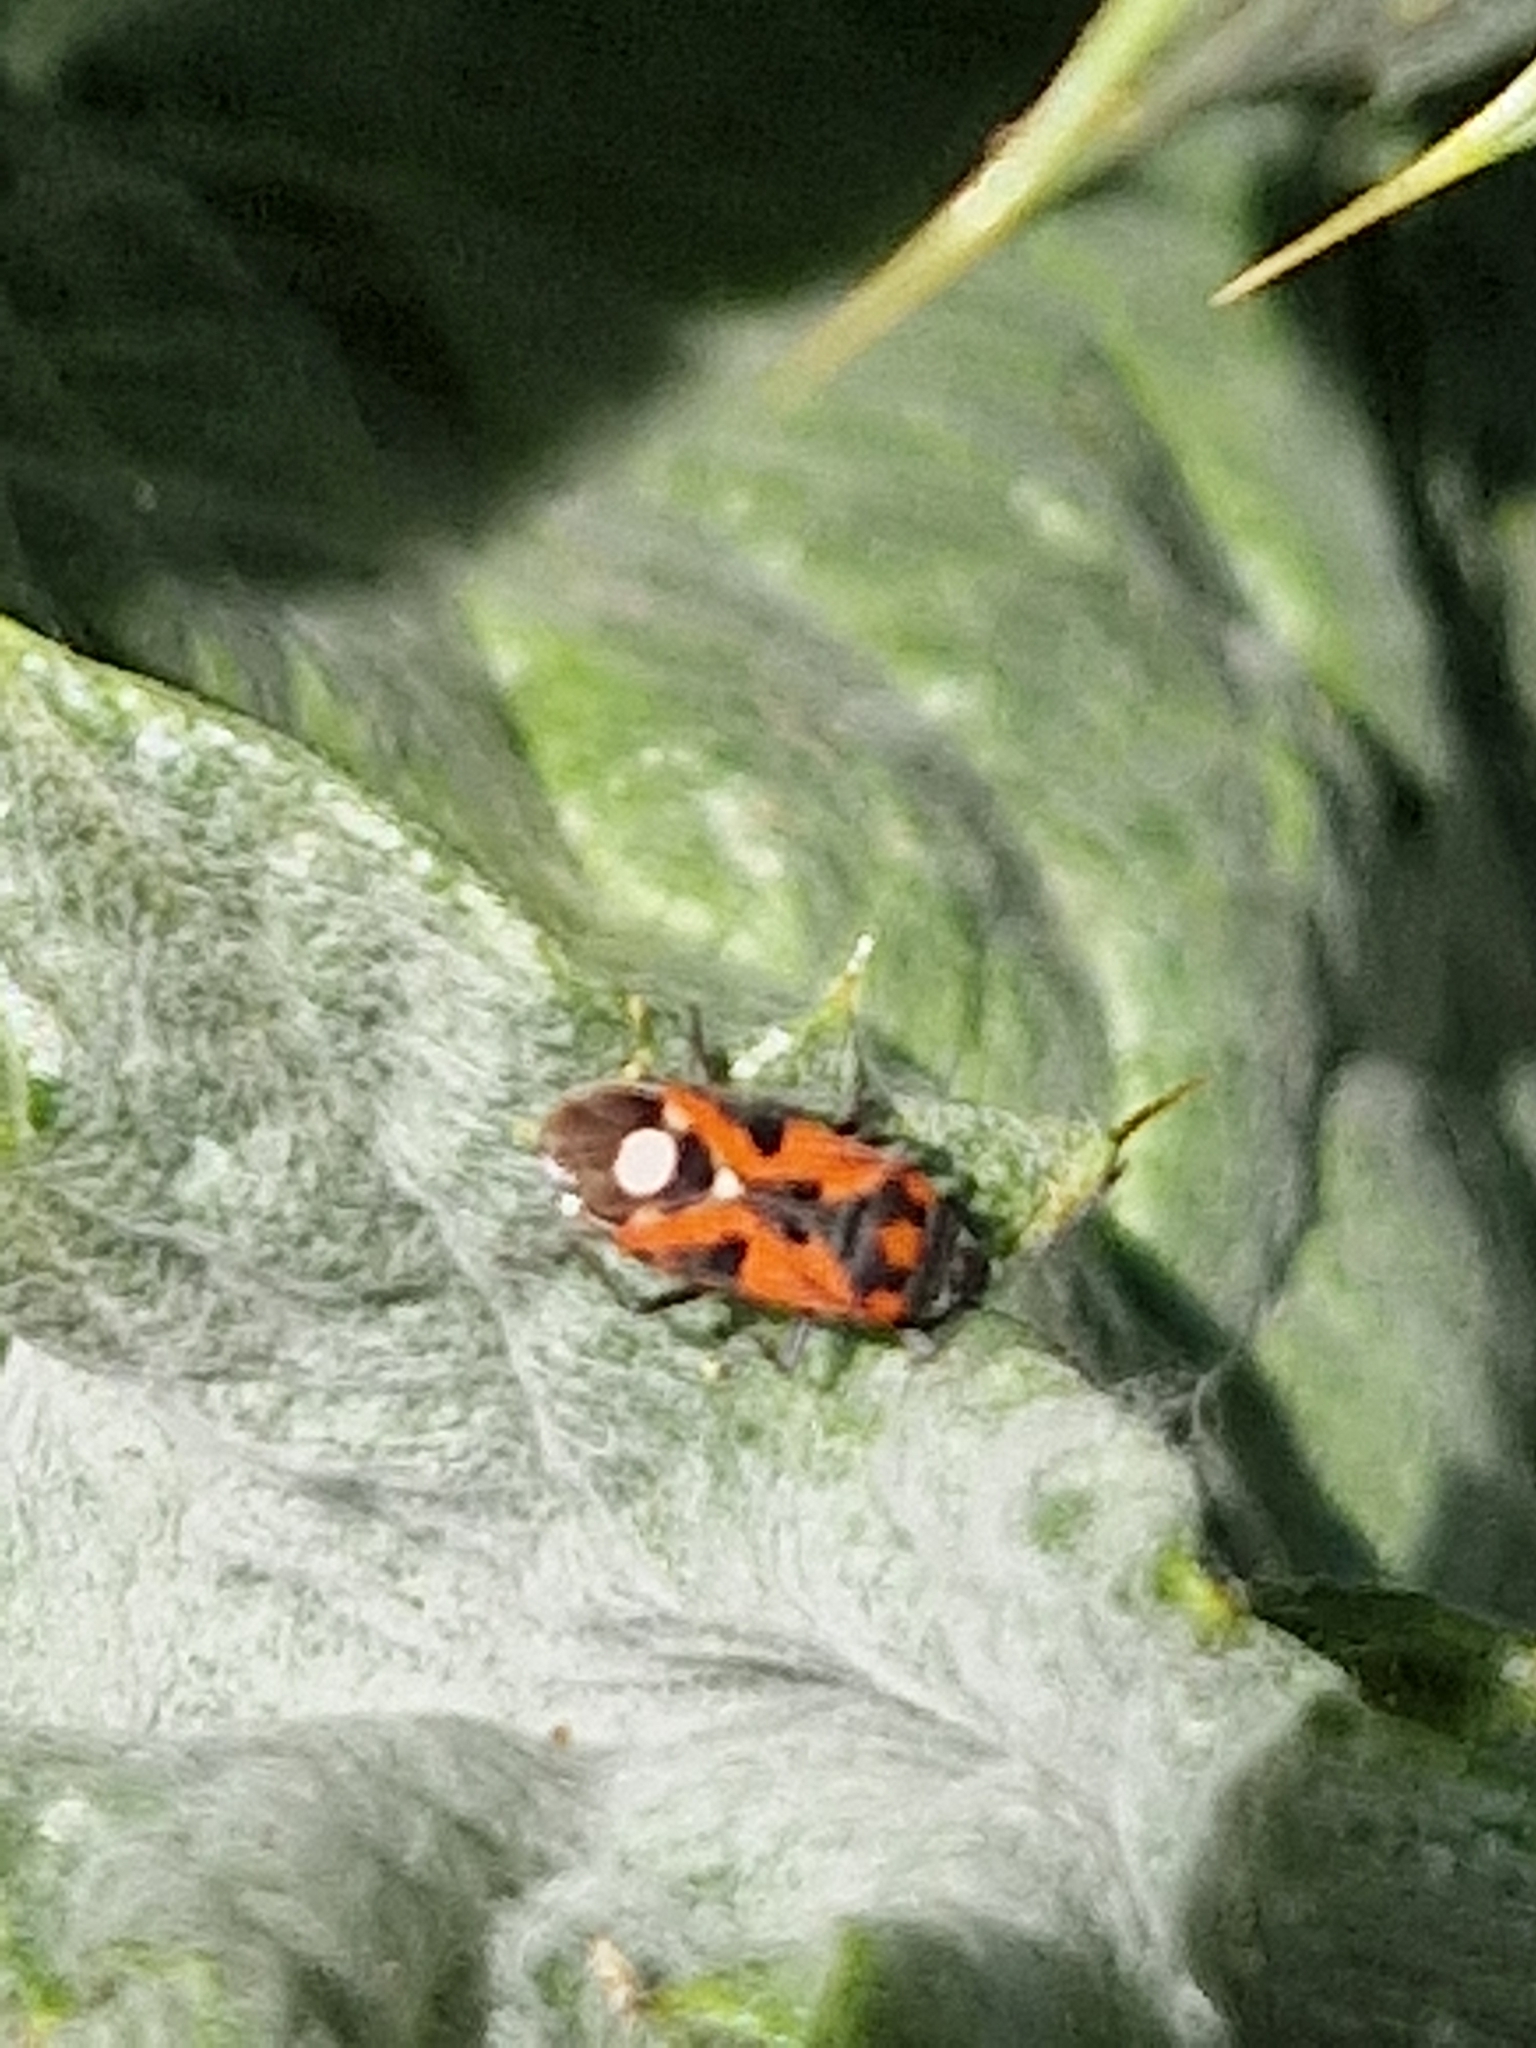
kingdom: Animalia
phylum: Arthropoda
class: Insecta
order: Hemiptera
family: Lygaeidae
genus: Lygaeus
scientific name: Lygaeus alboornatus
